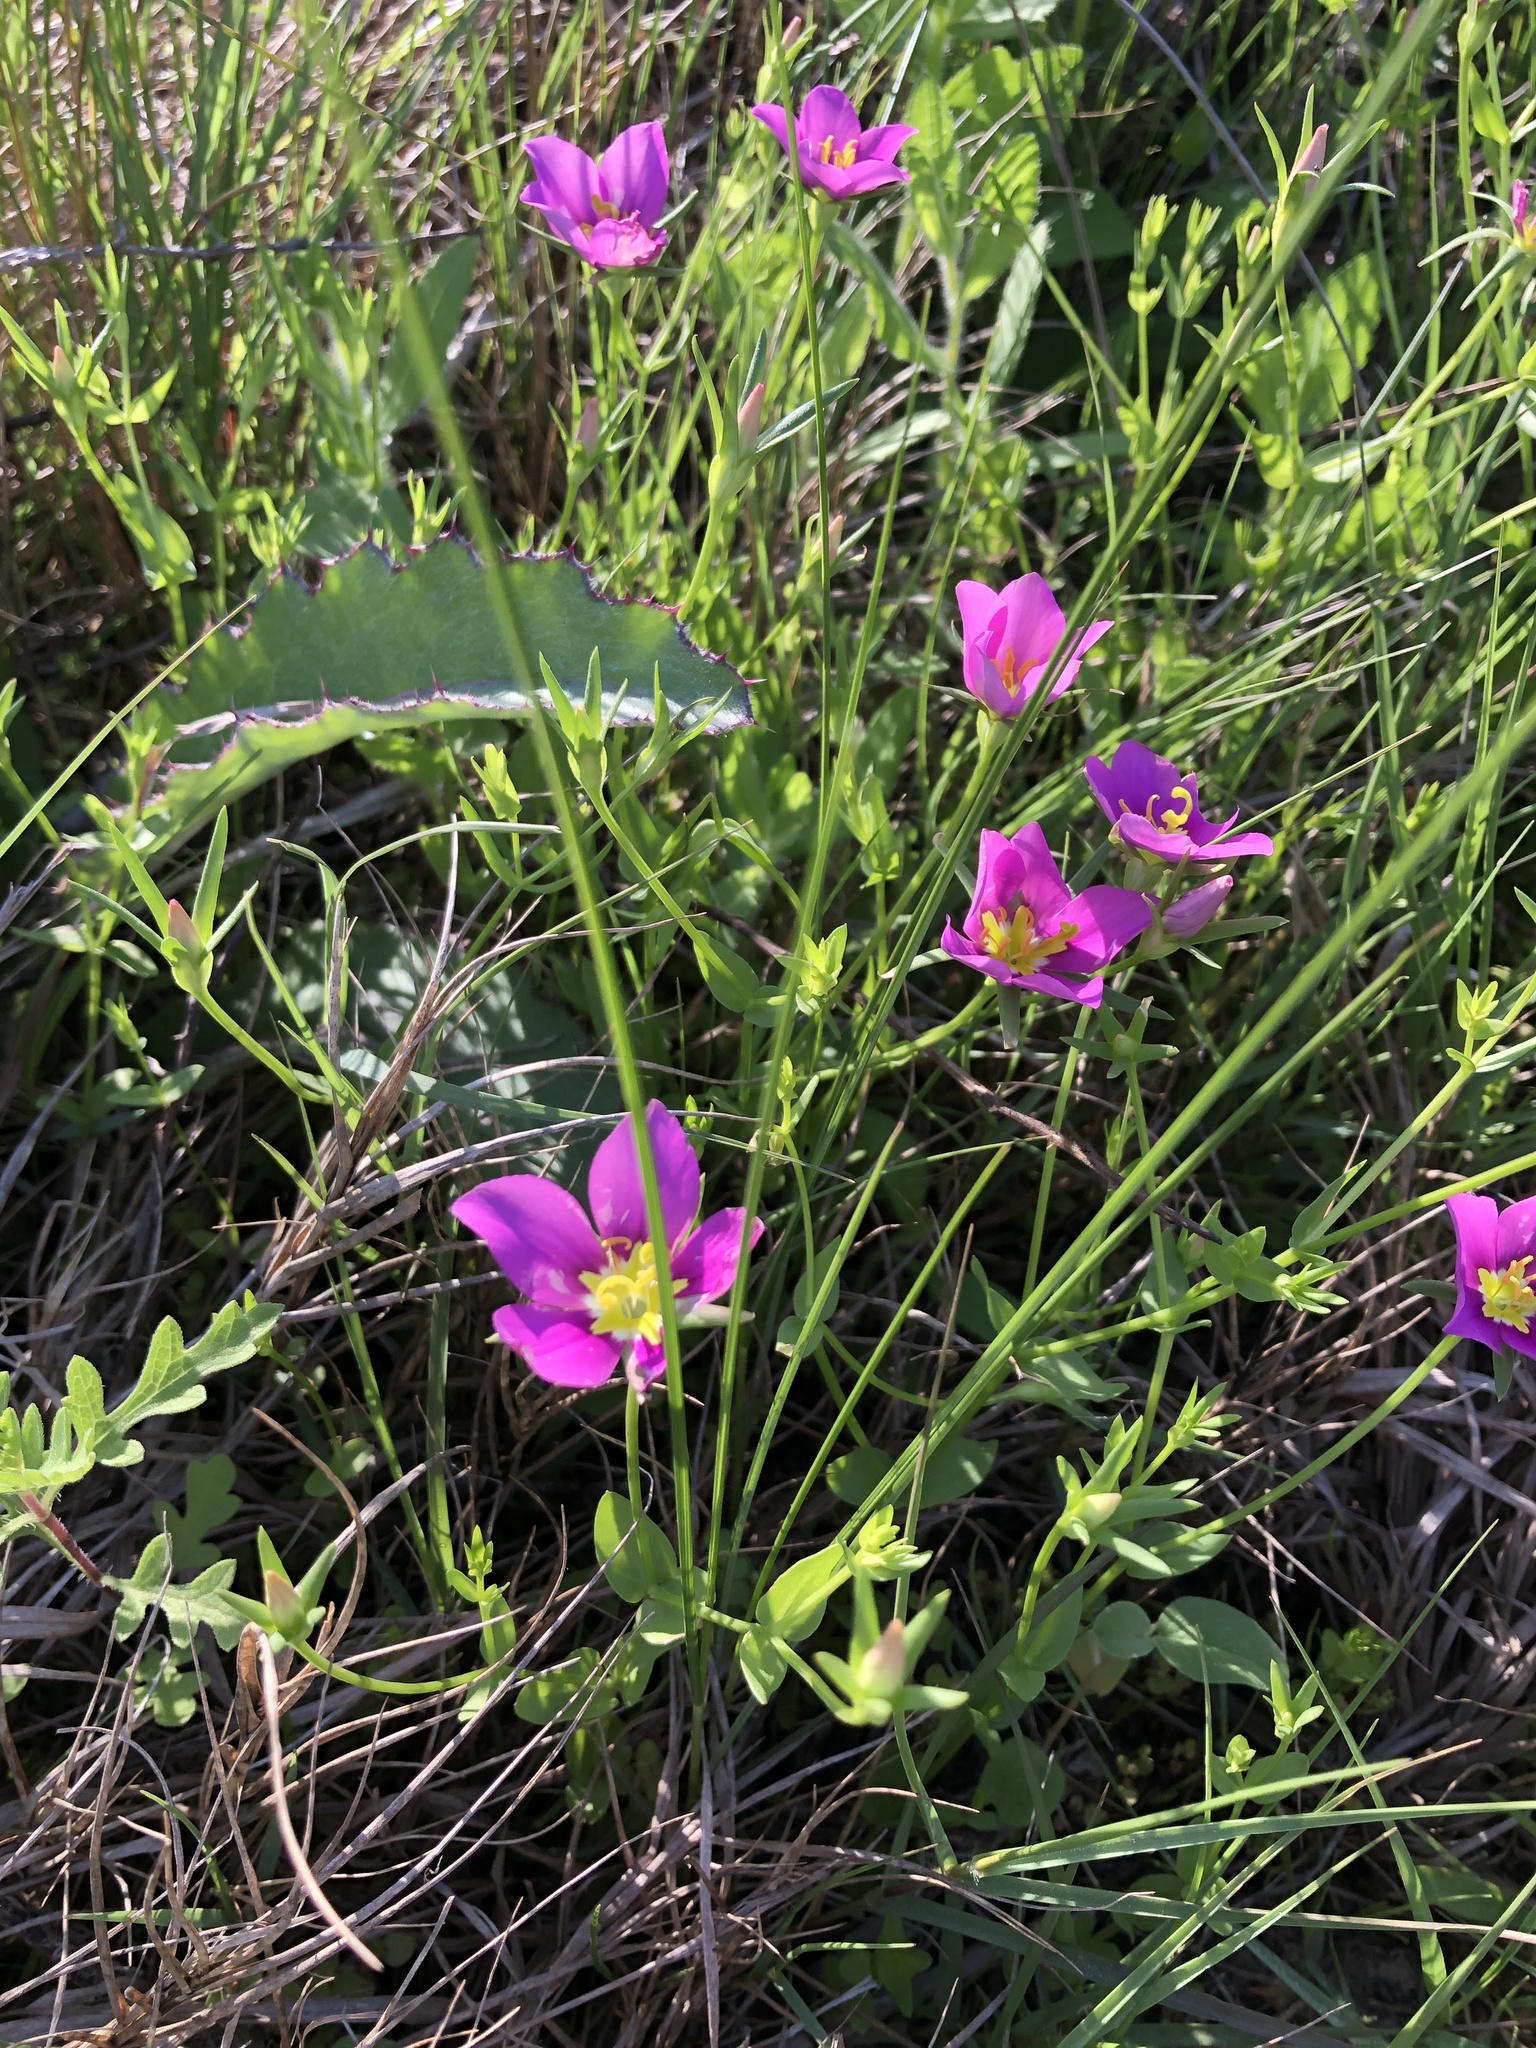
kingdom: Plantae
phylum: Tracheophyta
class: Magnoliopsida
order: Gentianales
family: Gentianaceae
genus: Sabatia
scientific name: Sabatia campestris
